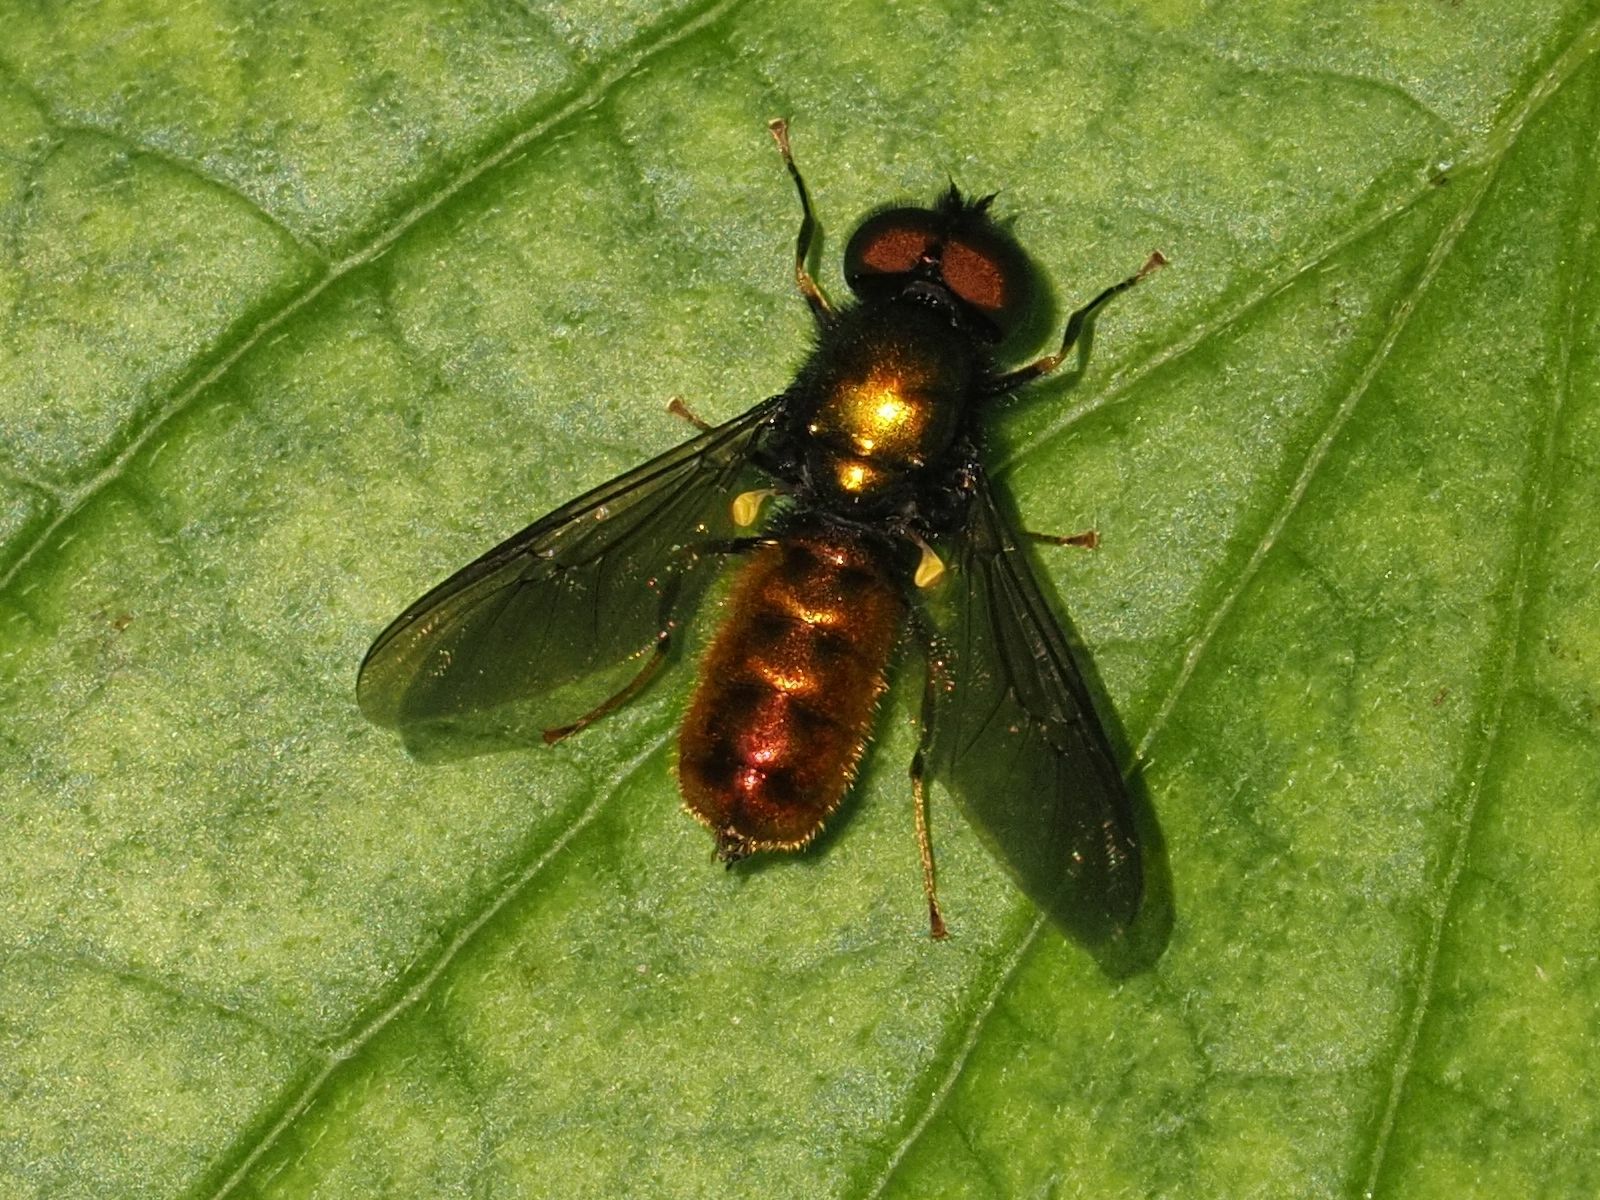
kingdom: Animalia
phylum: Arthropoda
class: Insecta
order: Diptera
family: Stratiomyidae
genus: Chloromyia
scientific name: Chloromyia speciosa
